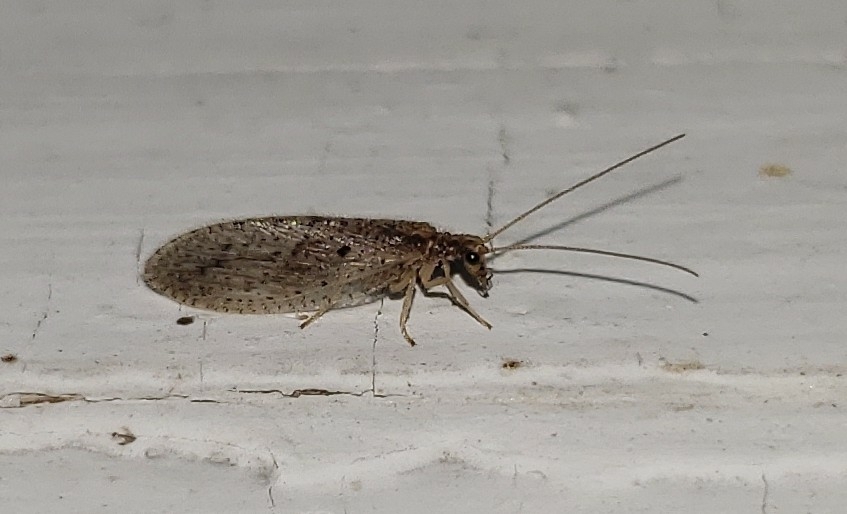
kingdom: Animalia
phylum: Arthropoda
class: Insecta
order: Neuroptera
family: Hemerobiidae
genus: Micromus
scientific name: Micromus subanticus
